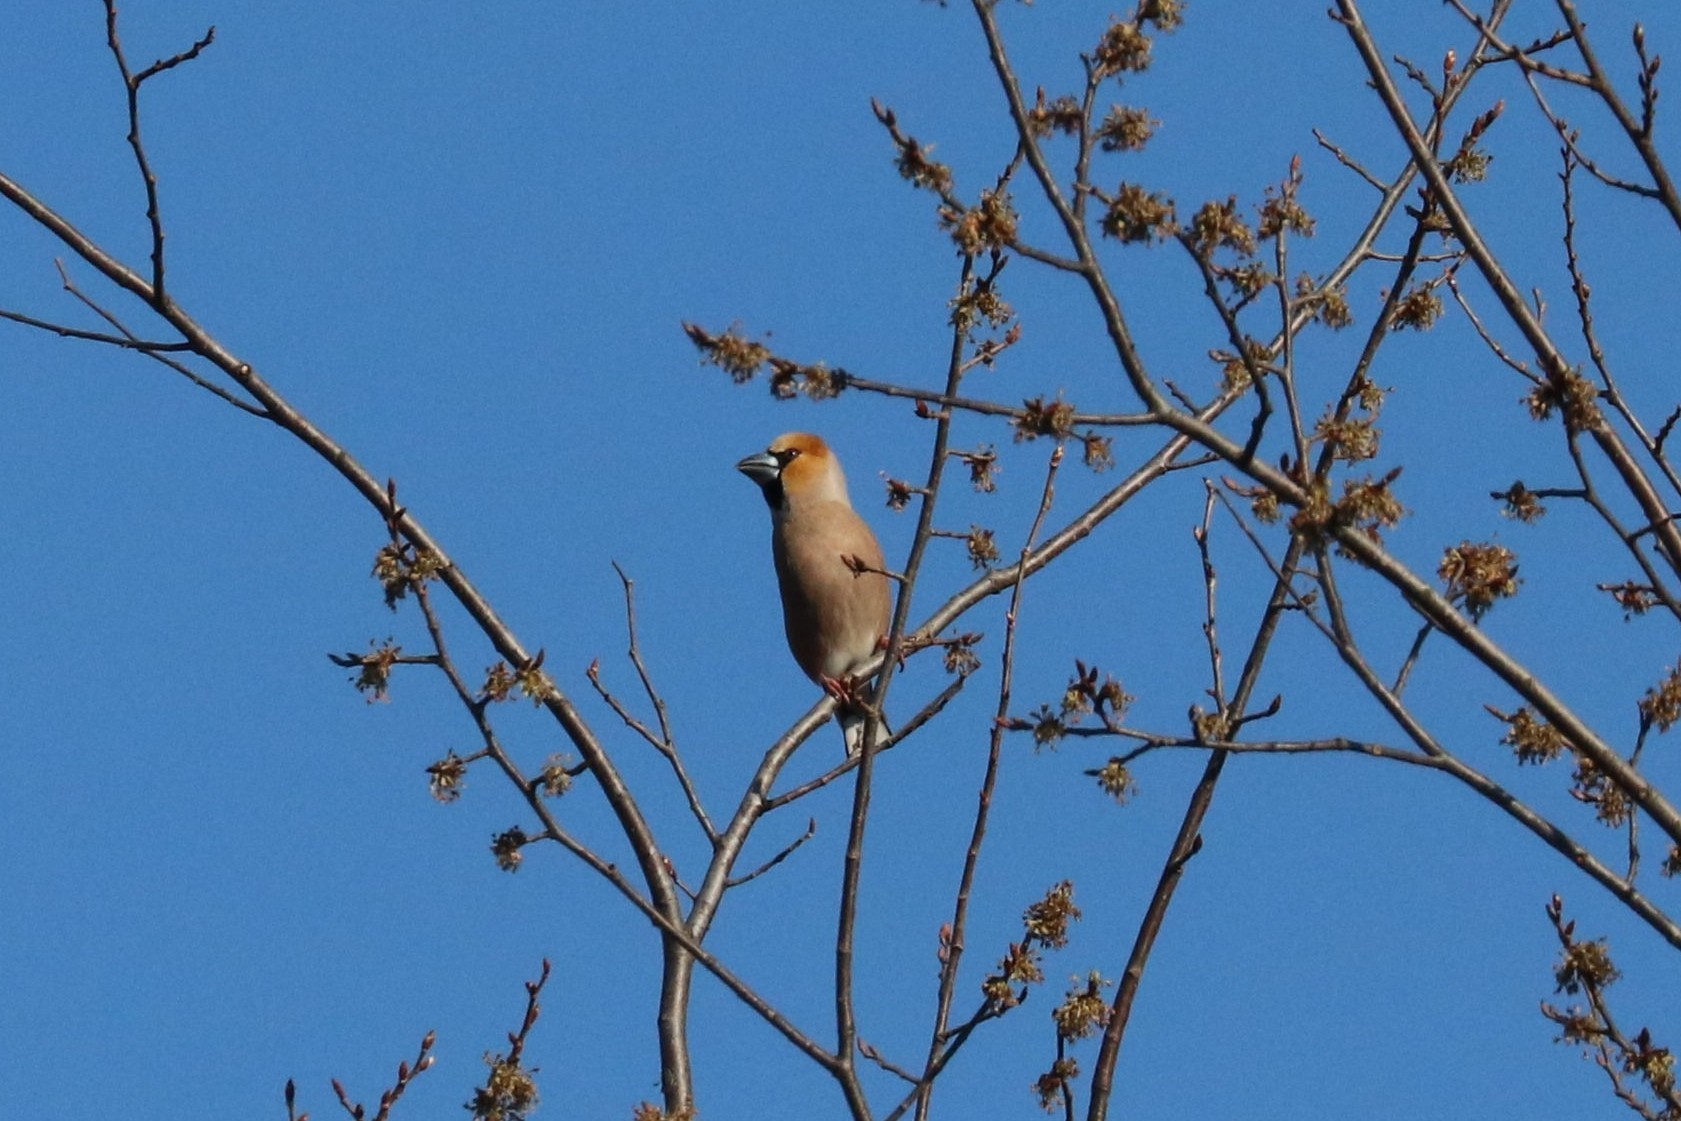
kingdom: Animalia
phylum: Chordata
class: Aves
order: Passeriformes
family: Fringillidae
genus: Coccothraustes
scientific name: Coccothraustes coccothraustes
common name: Hawfinch
